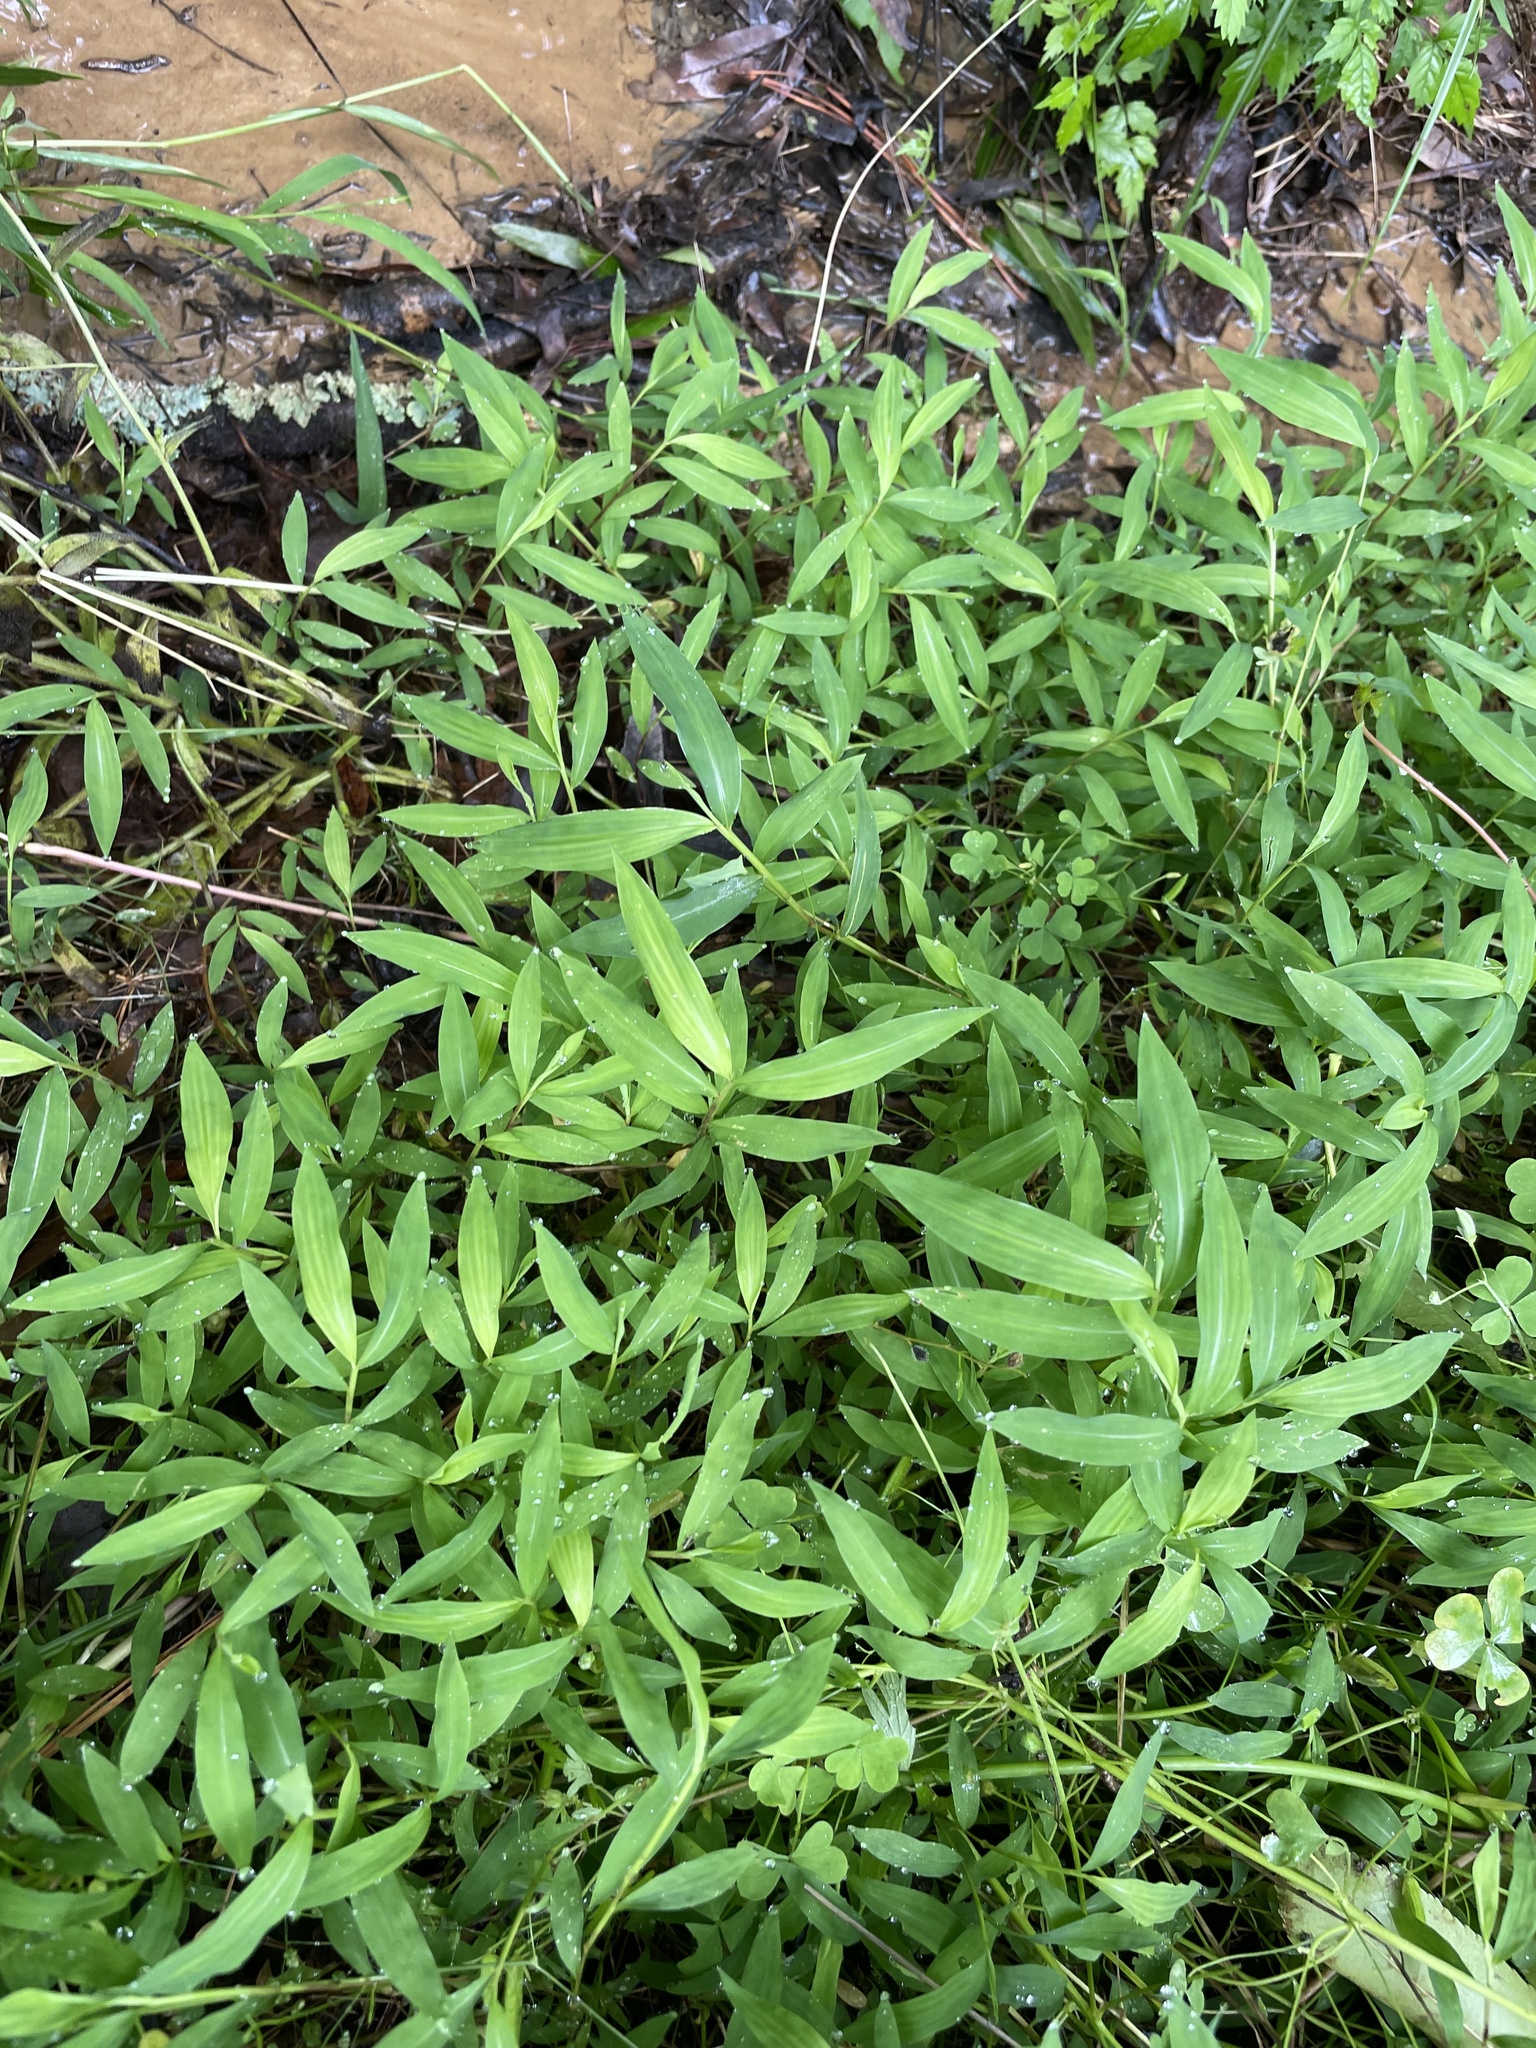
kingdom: Plantae
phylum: Tracheophyta
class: Liliopsida
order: Poales
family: Poaceae
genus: Microstegium
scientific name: Microstegium vimineum
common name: Japanese stiltgrass
